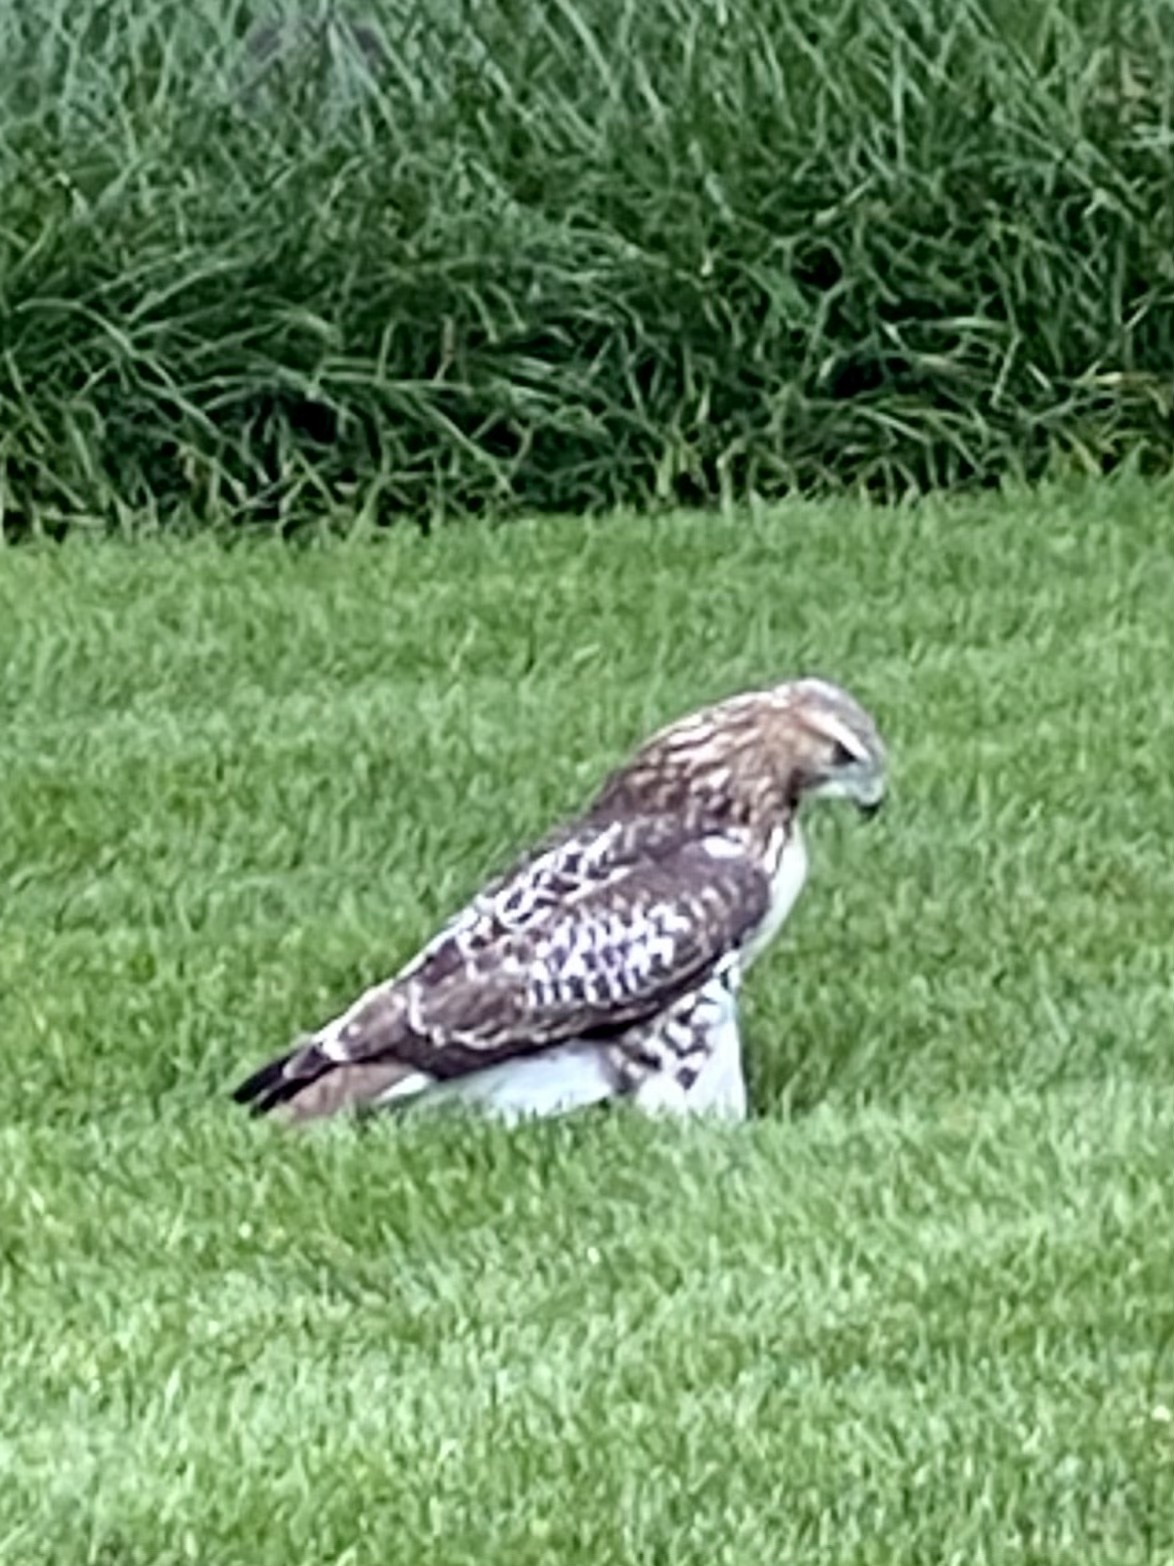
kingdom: Animalia
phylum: Chordata
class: Aves
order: Accipitriformes
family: Accipitridae
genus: Buteo
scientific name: Buteo jamaicensis
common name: Red-tailed hawk
